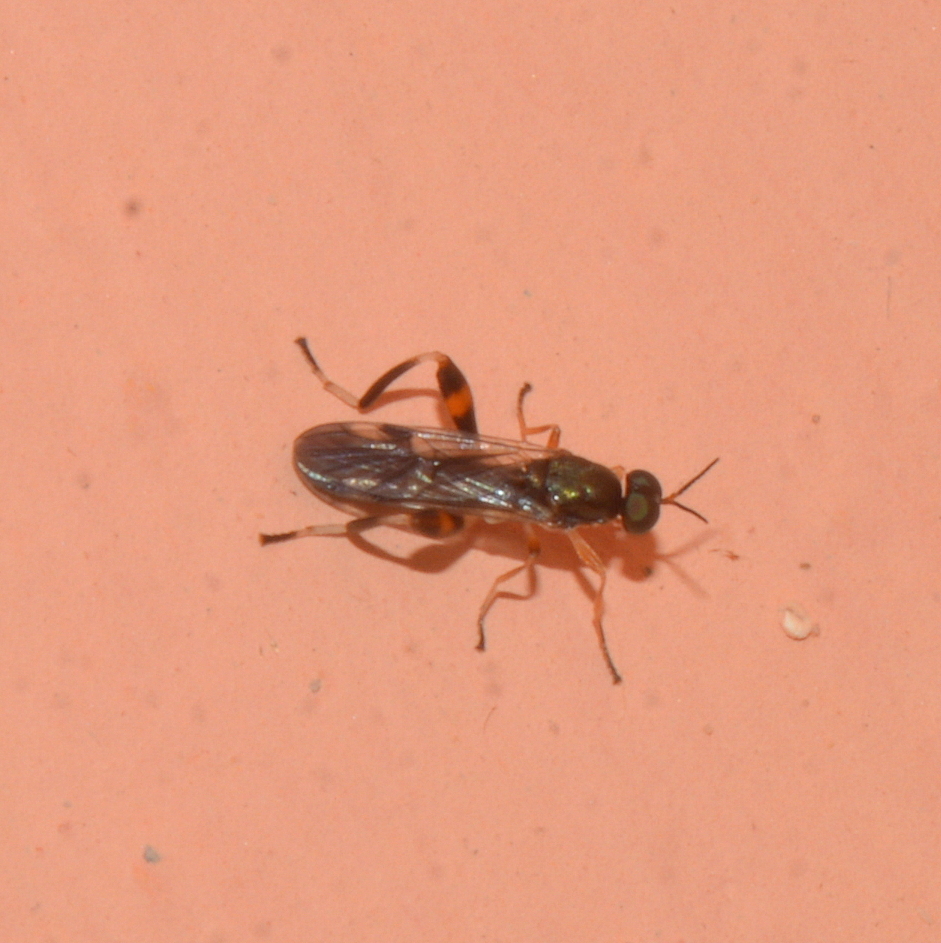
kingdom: Animalia
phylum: Arthropoda
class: Insecta
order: Diptera
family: Stratiomyidae
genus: Neoberis
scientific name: Neoberis brasiliana
